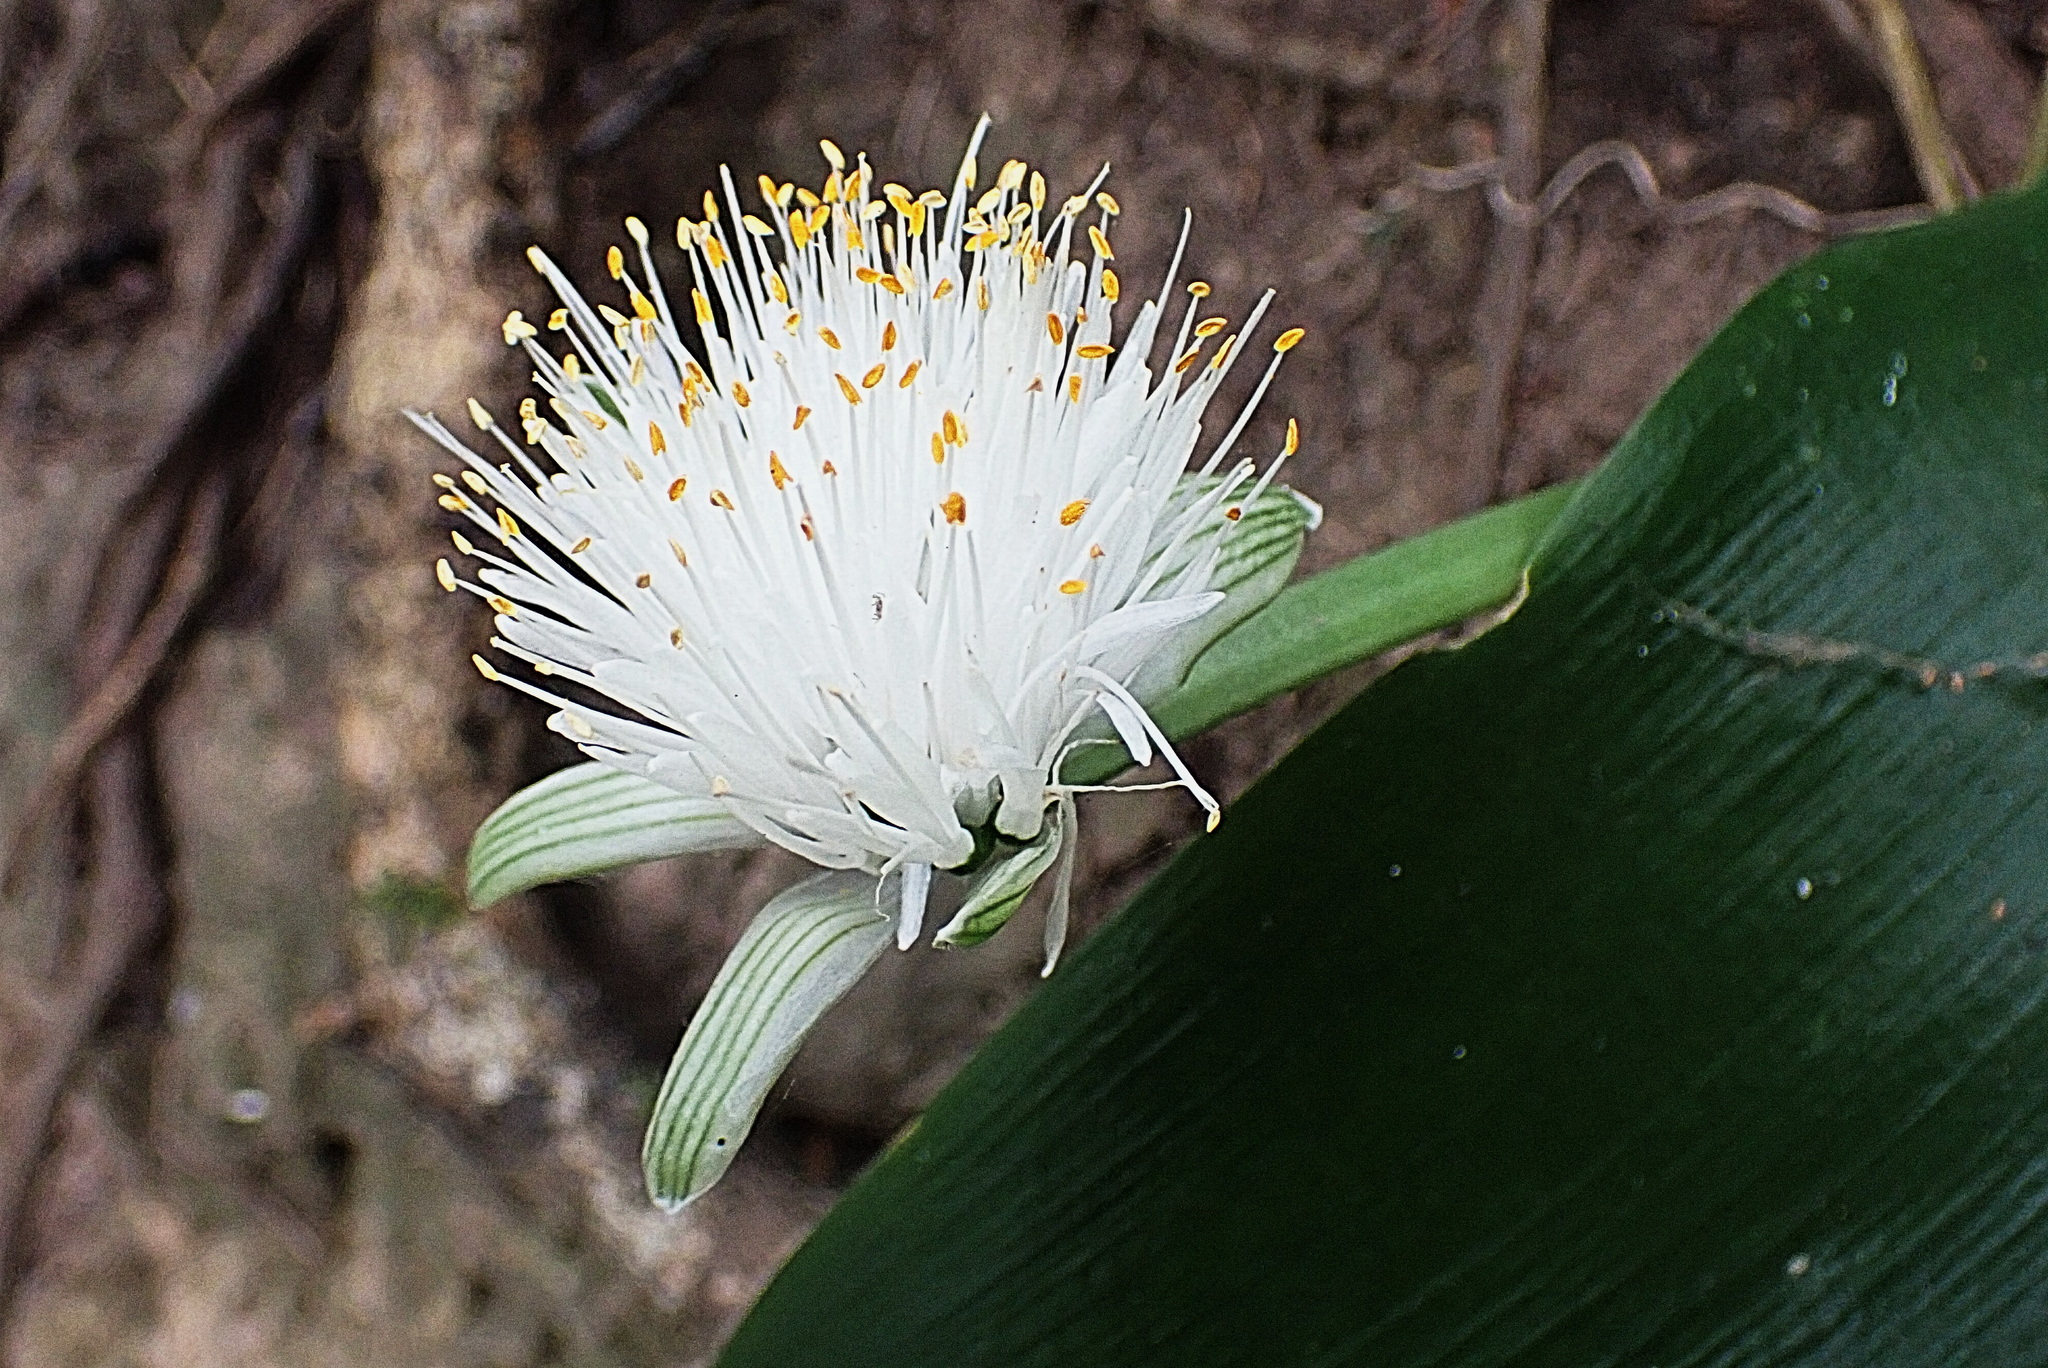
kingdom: Plantae
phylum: Tracheophyta
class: Liliopsida
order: Asparagales
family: Amaryllidaceae
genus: Haemanthus
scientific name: Haemanthus albiflos
